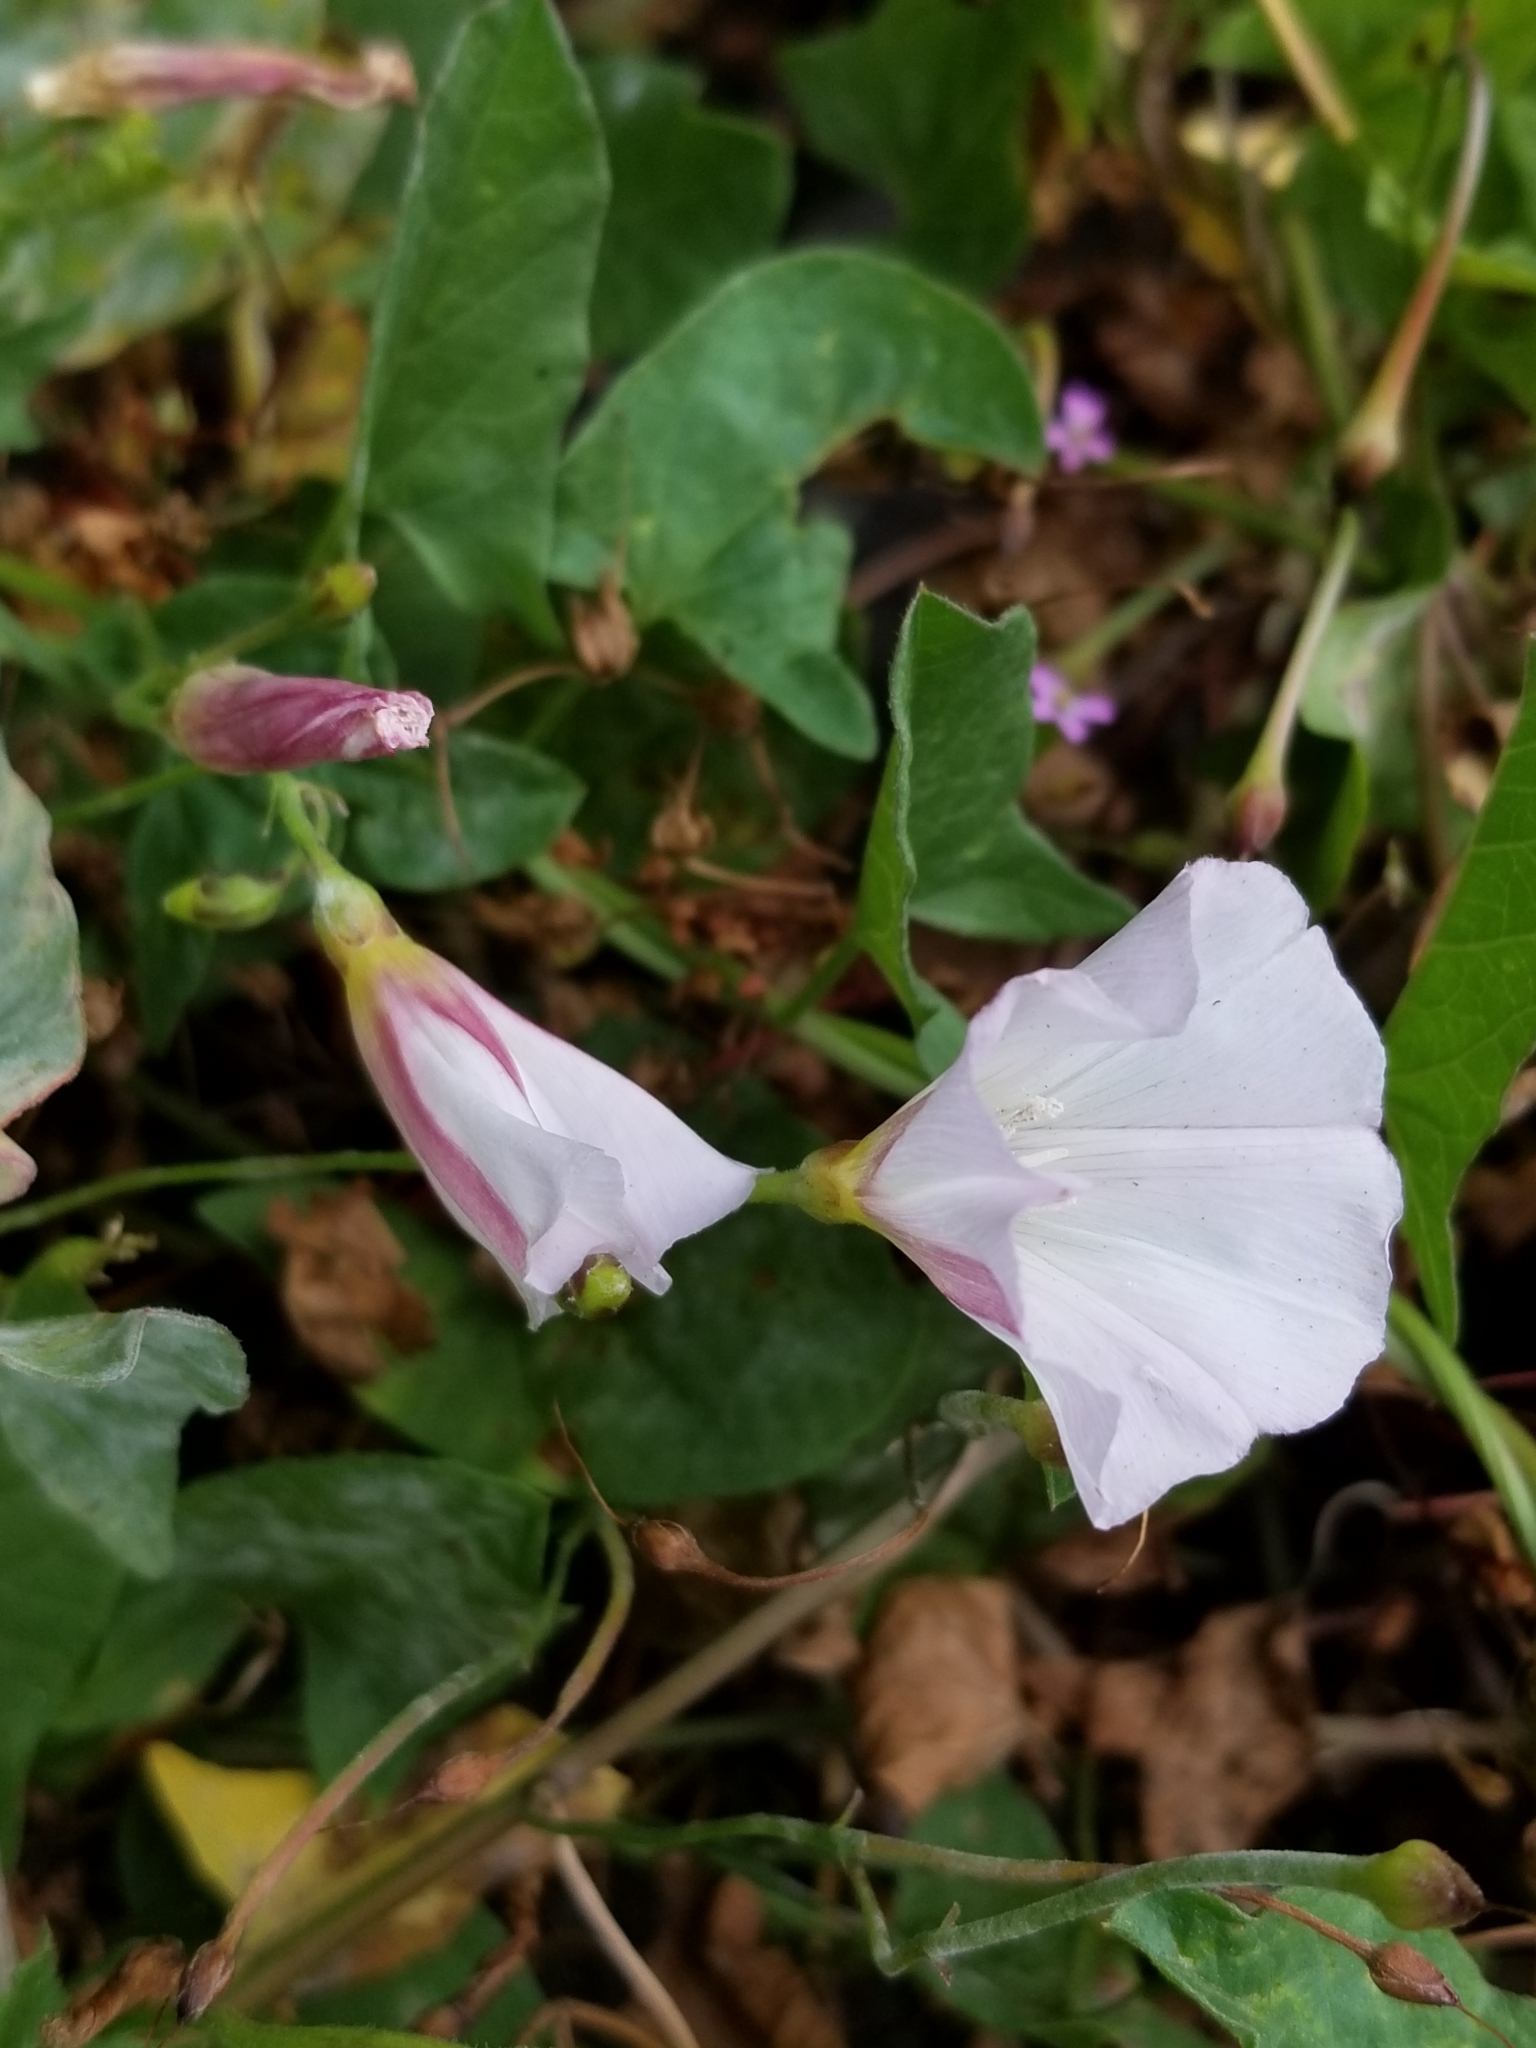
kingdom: Plantae
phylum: Tracheophyta
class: Magnoliopsida
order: Solanales
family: Convolvulaceae
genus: Convolvulus
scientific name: Convolvulus arvensis
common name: Field bindweed
